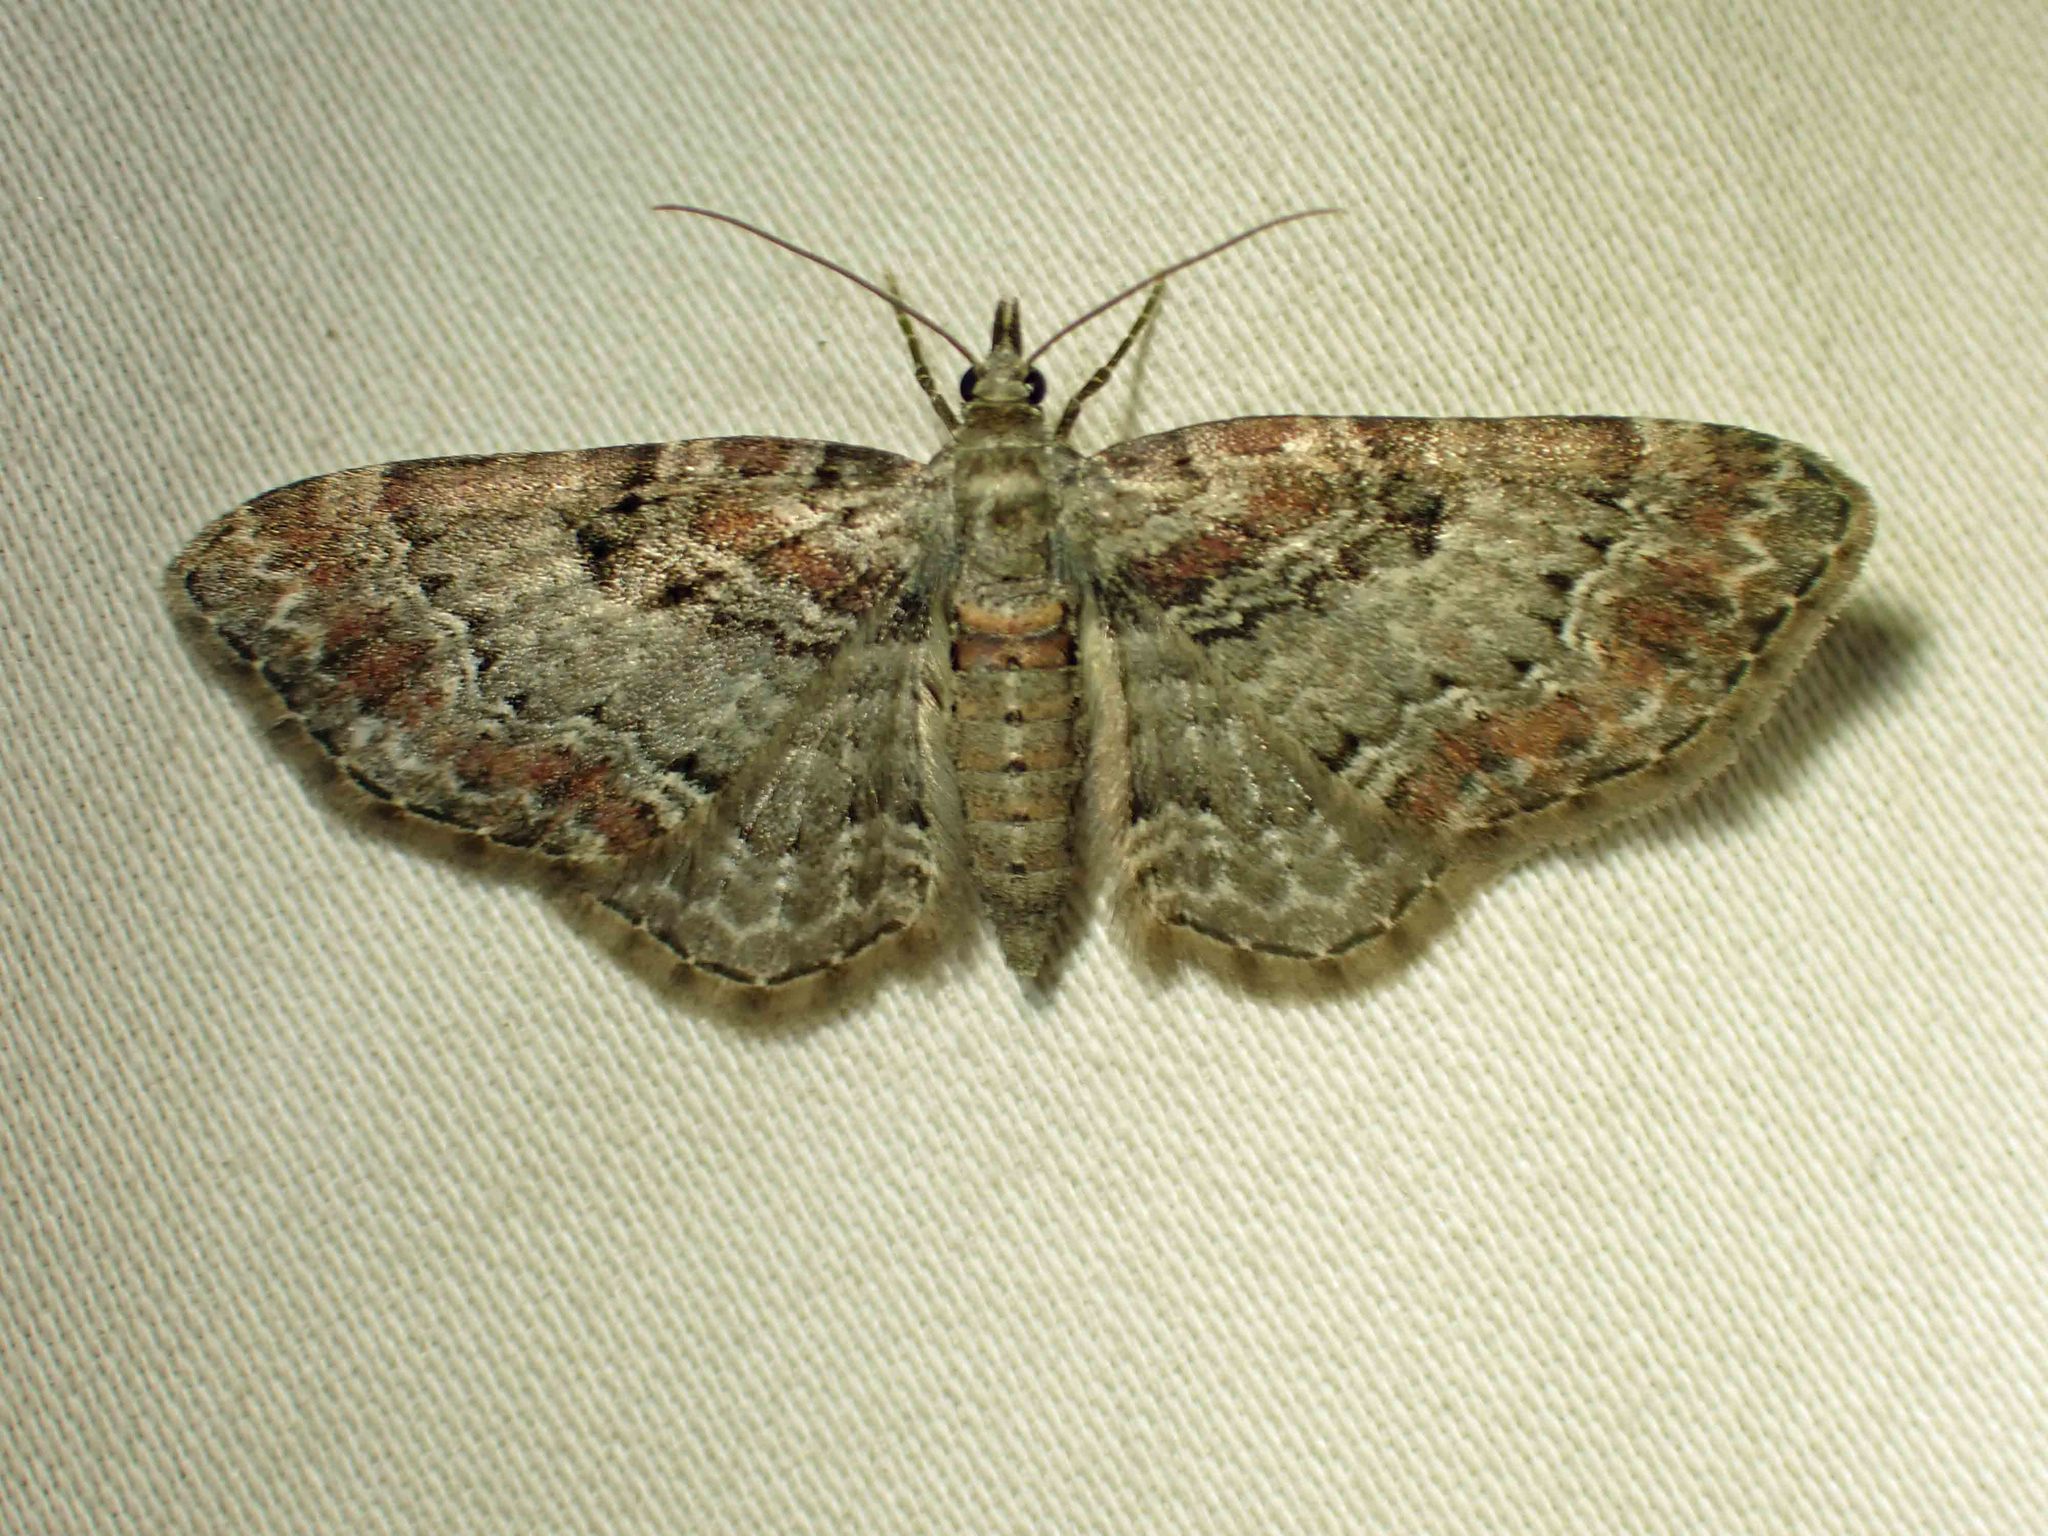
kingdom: Animalia
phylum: Arthropoda
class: Insecta
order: Lepidoptera
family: Geometridae
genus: Eupithecia
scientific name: Eupithecia mutata
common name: Cloaked pug
